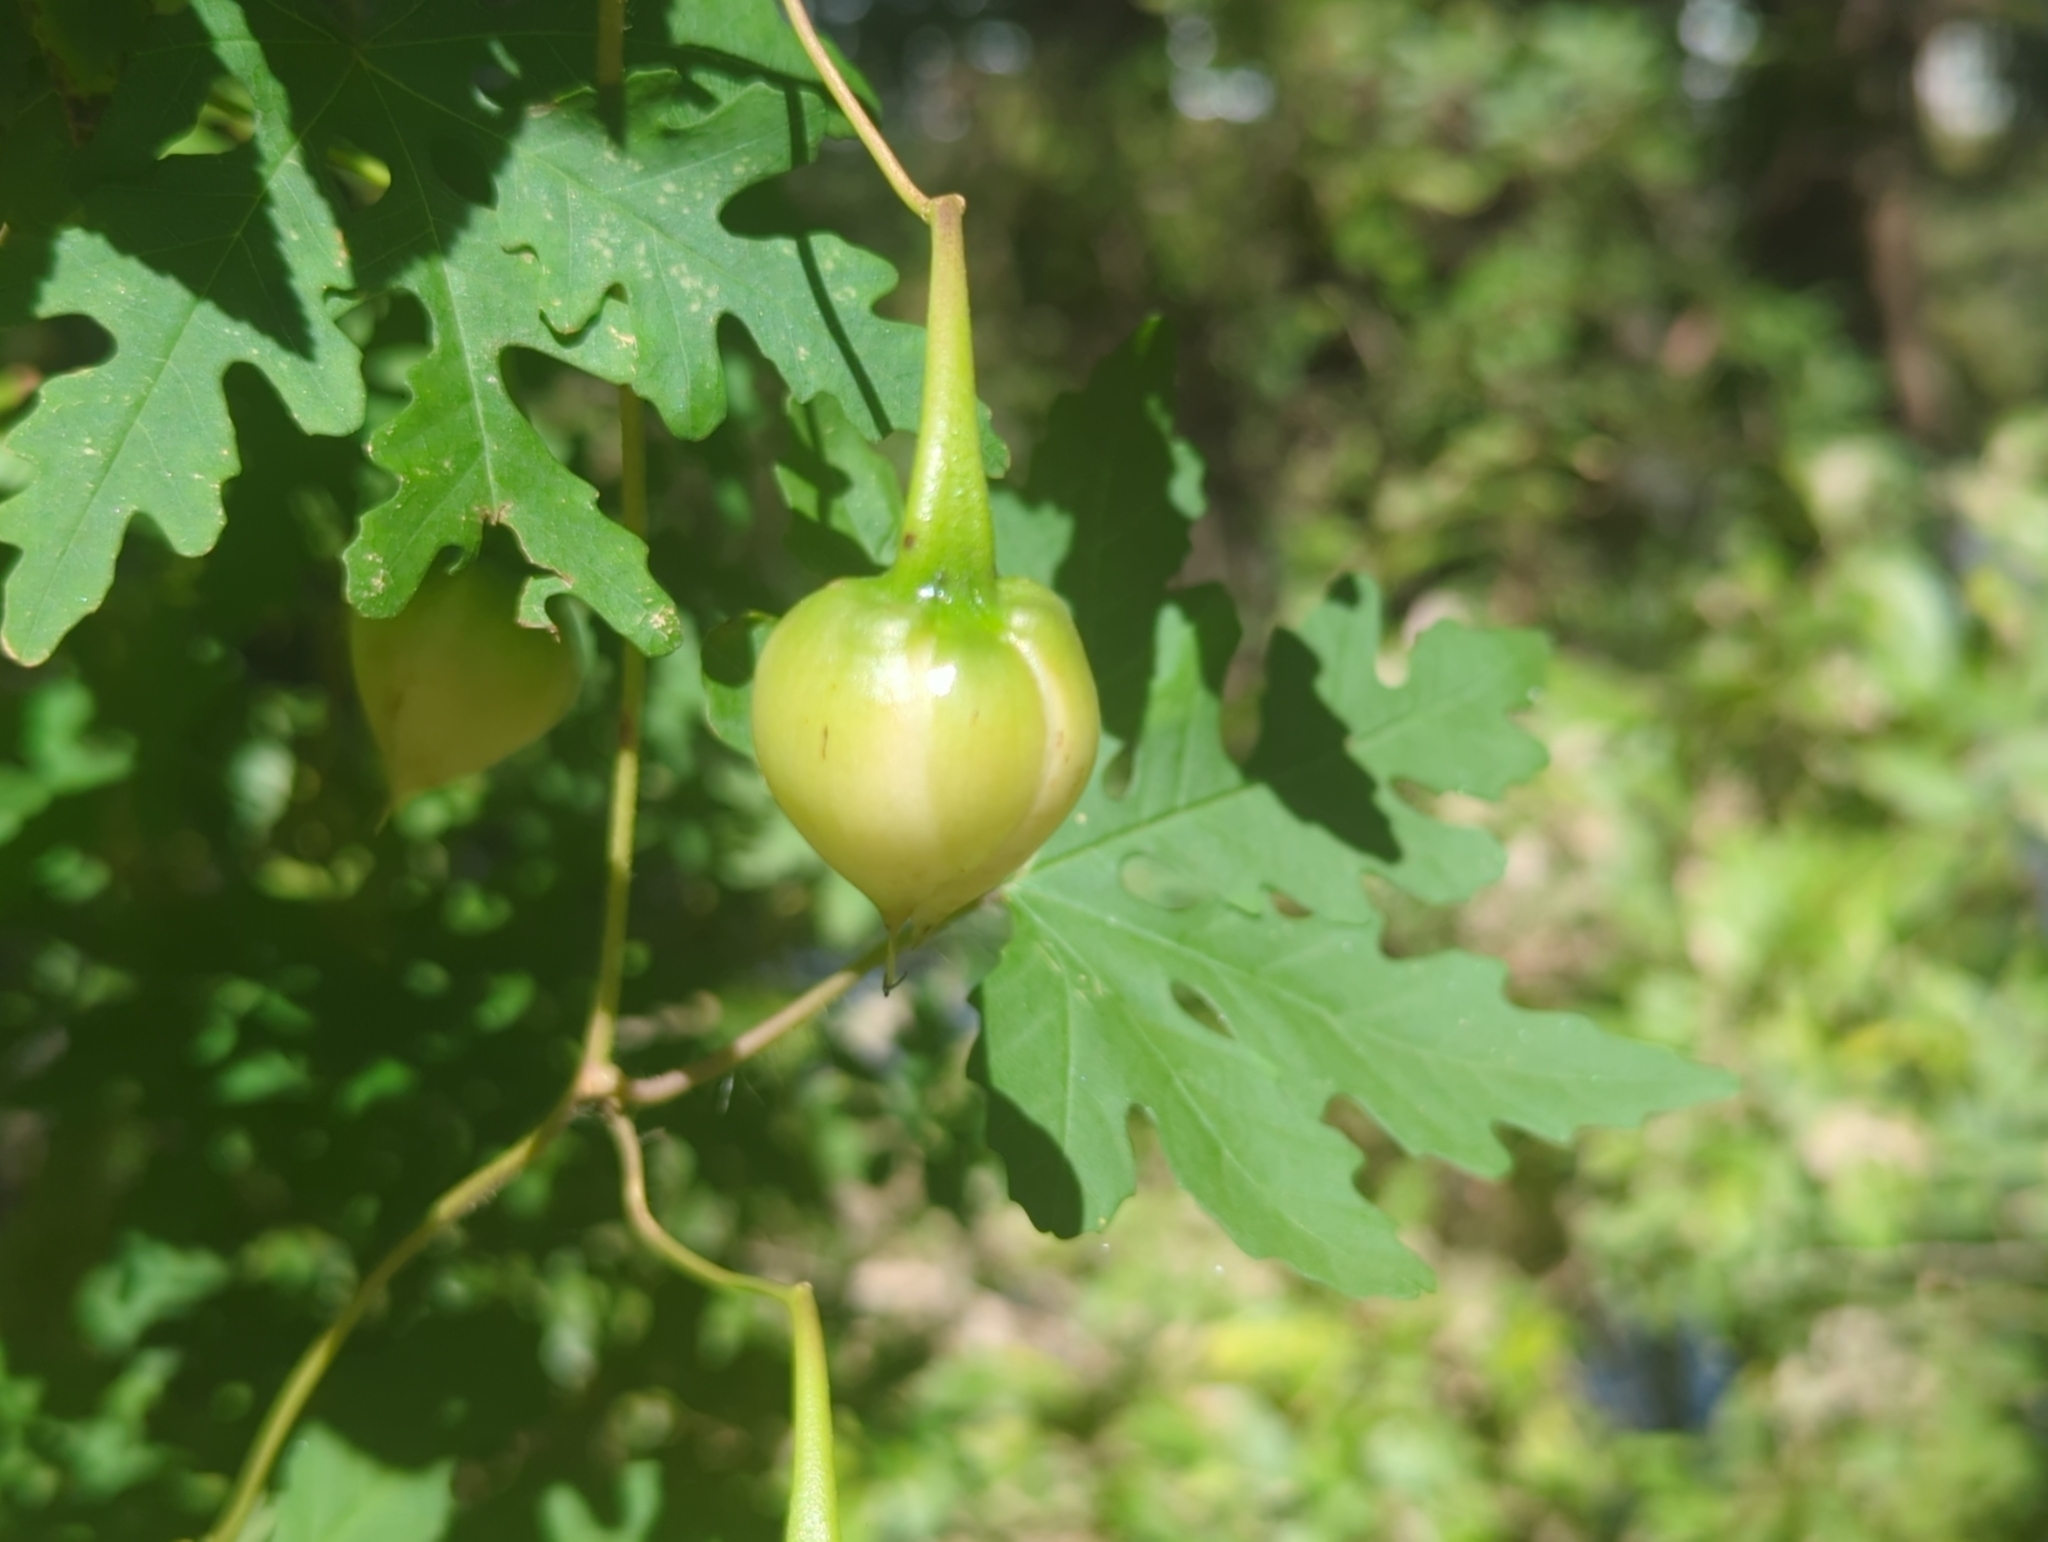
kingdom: Plantae
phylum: Tracheophyta
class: Magnoliopsida
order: Solanales
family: Convolvulaceae
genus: Distimake
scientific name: Distimake dissectus
